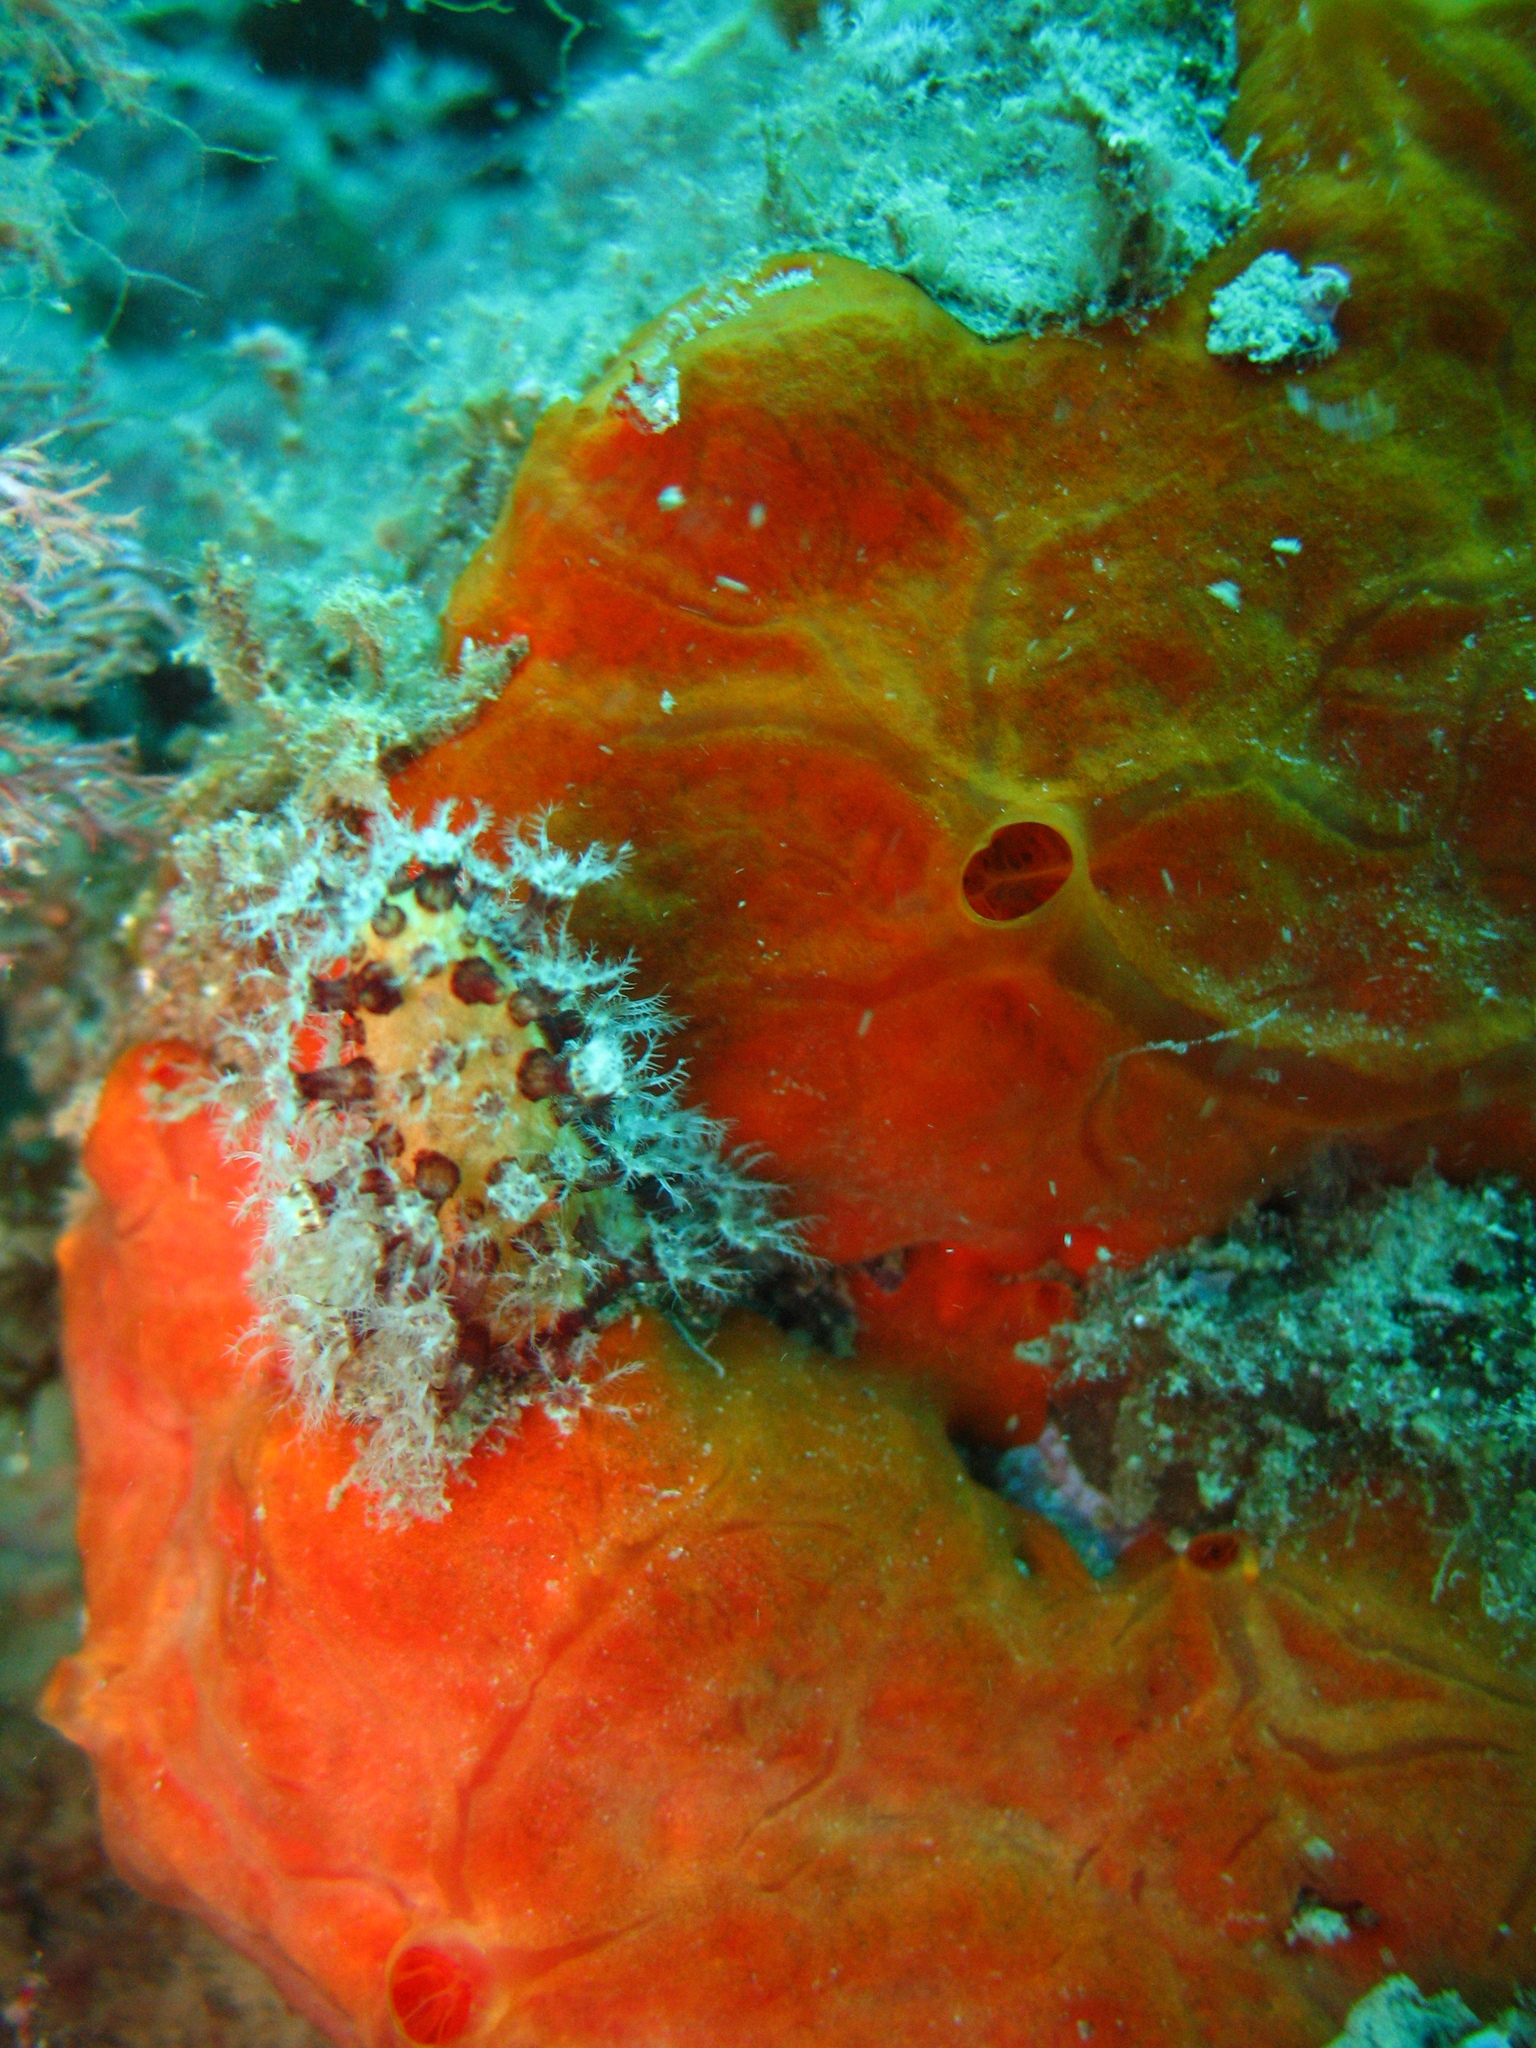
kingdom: Animalia
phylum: Cnidaria
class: Anthozoa
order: Malacalcyonacea
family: Alcyoniidae
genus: Alcyonium
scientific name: Alcyonium acaule
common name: Sea finger
